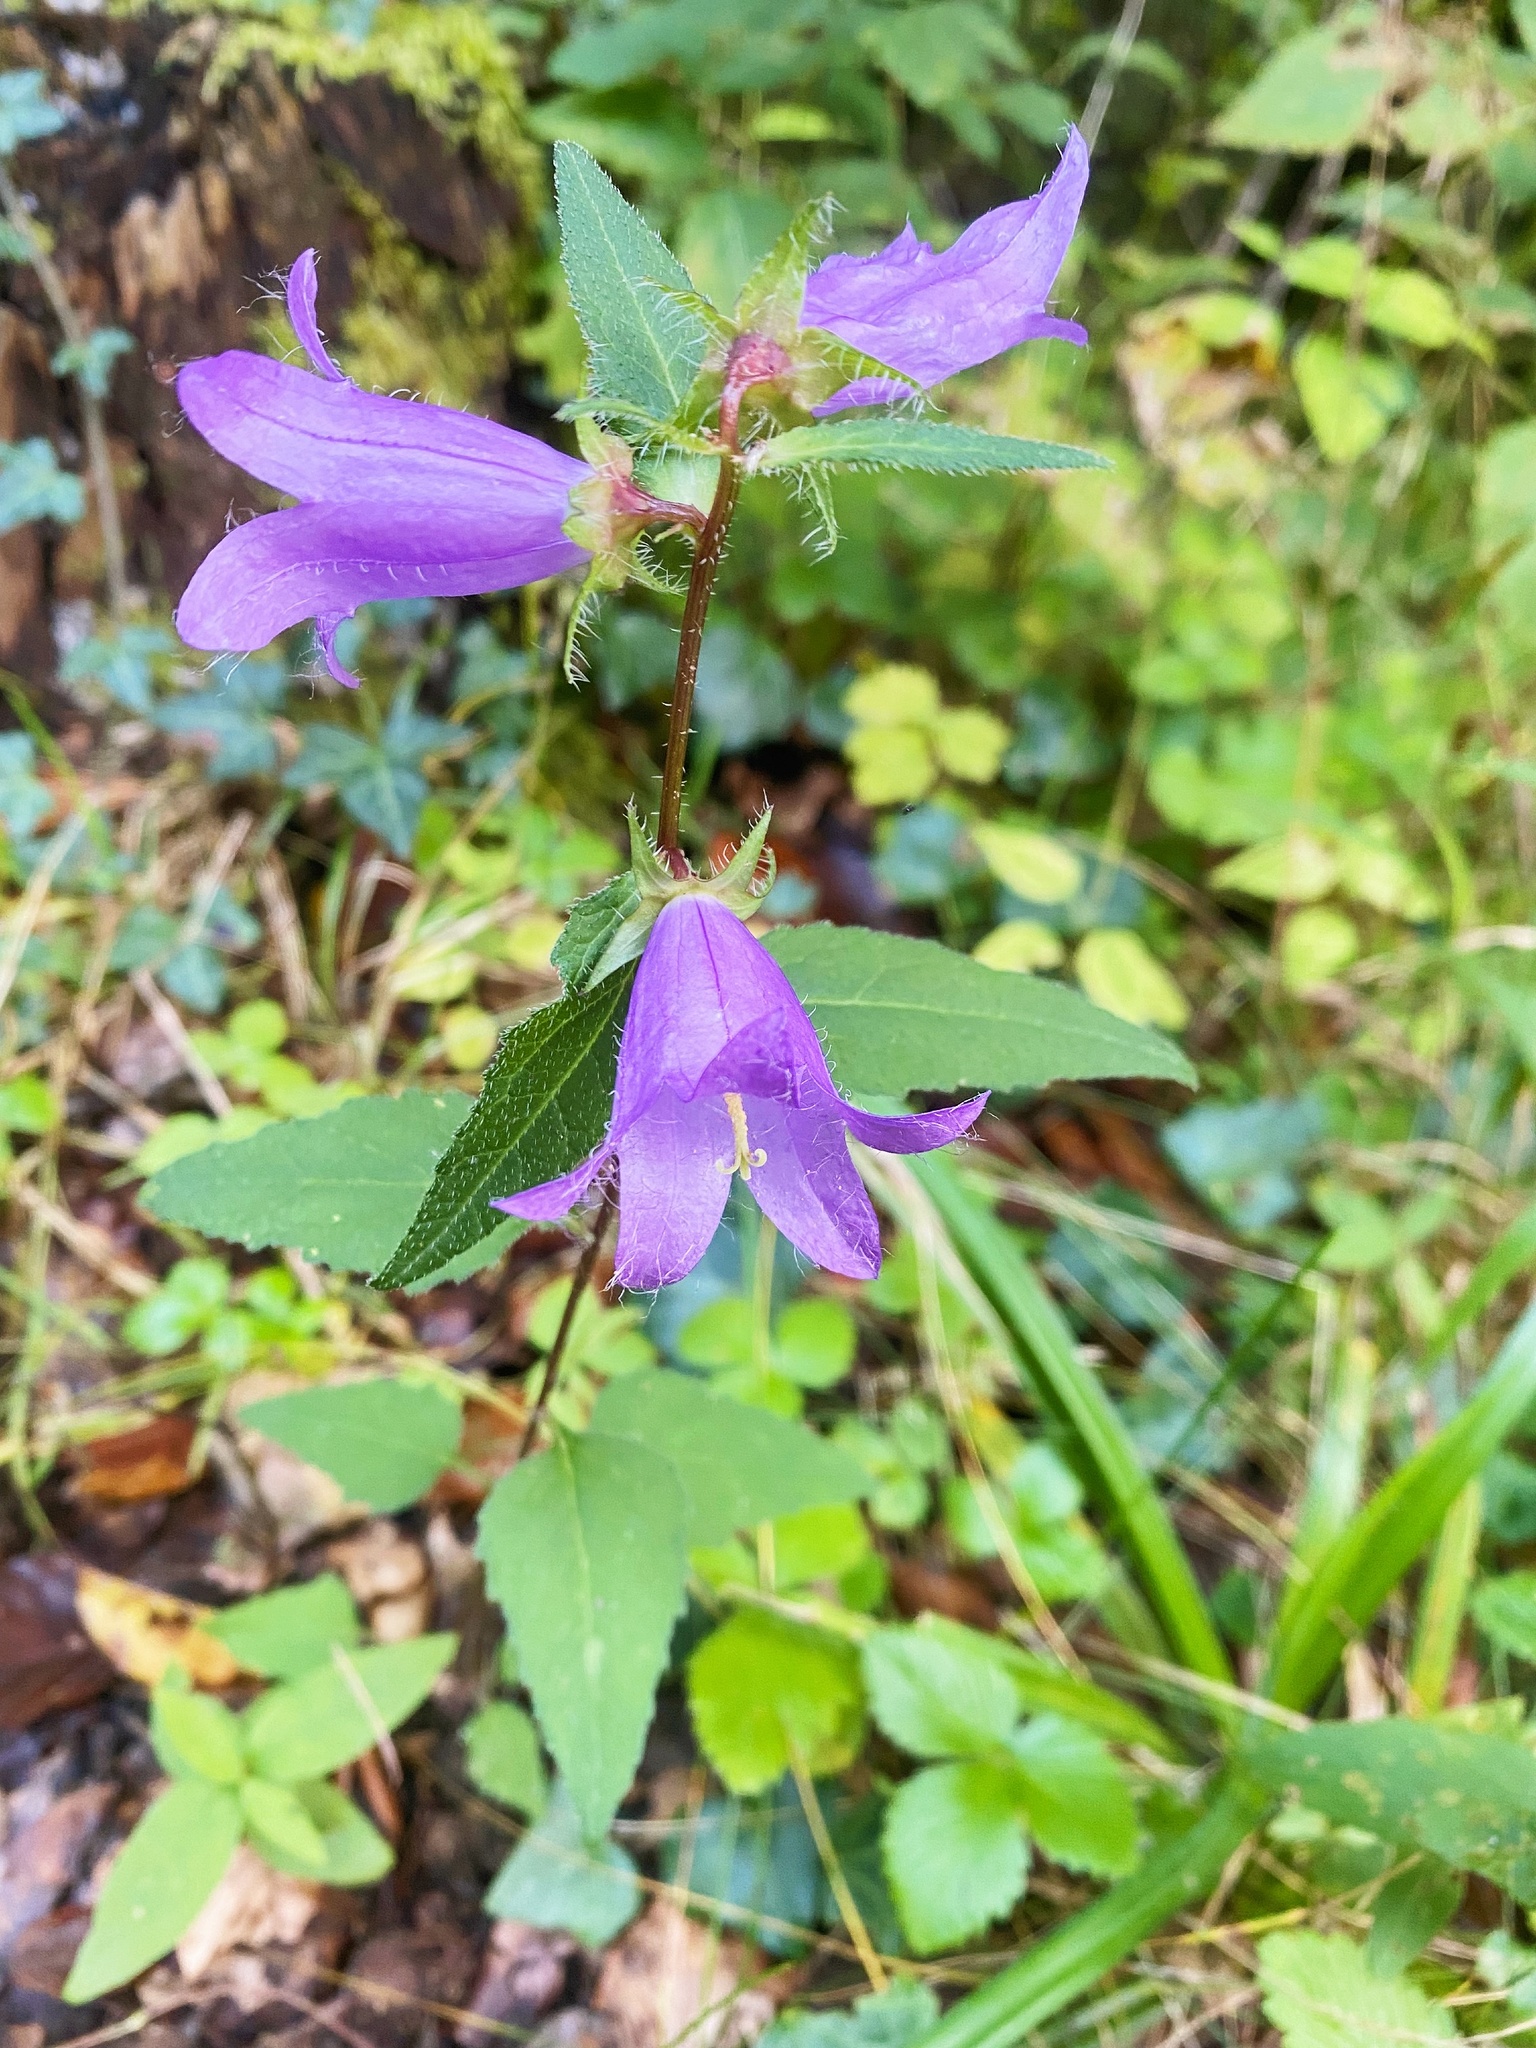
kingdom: Plantae
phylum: Tracheophyta
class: Magnoliopsida
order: Asterales
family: Campanulaceae
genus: Campanula
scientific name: Campanula trachelium
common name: Nettle-leaved bellflower
